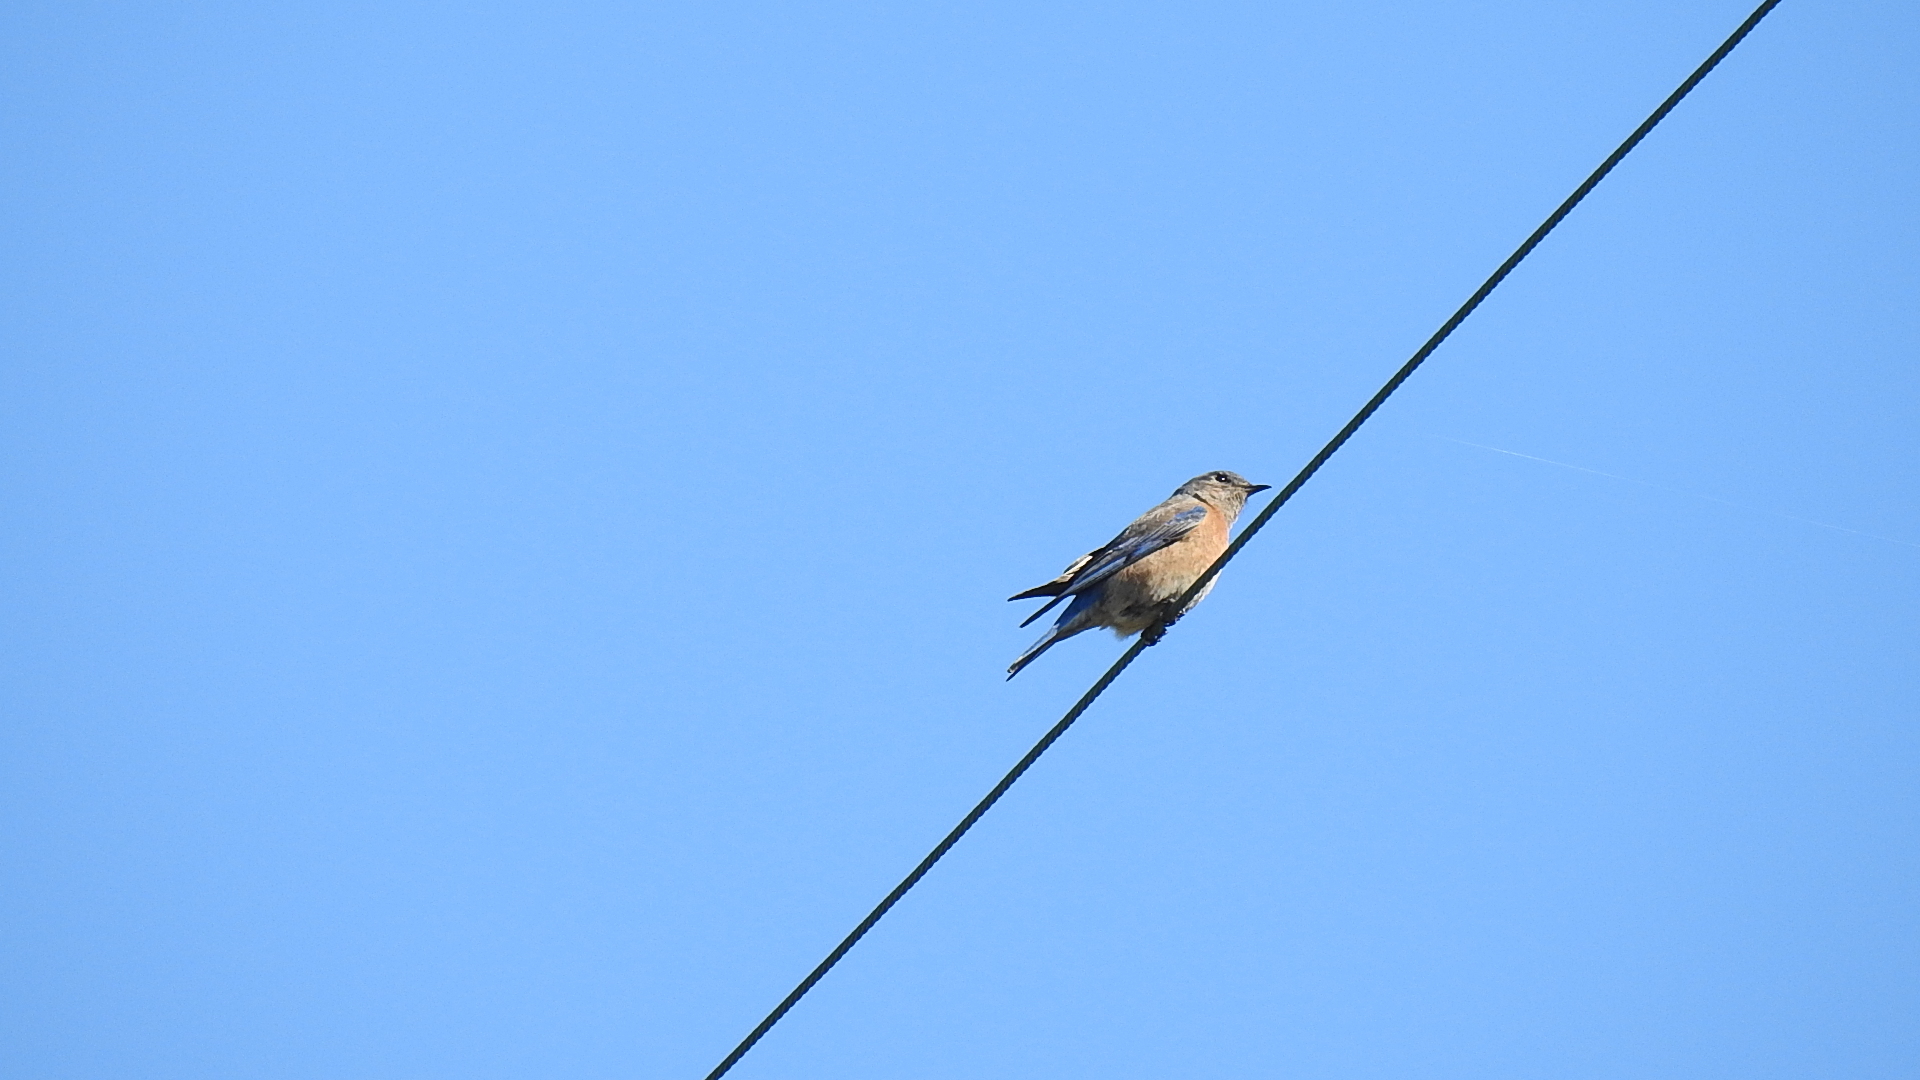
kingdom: Animalia
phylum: Chordata
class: Aves
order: Passeriformes
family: Turdidae
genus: Sialia
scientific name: Sialia mexicana
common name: Western bluebird
